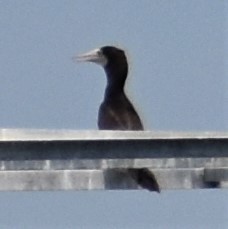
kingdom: Animalia
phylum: Chordata
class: Aves
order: Suliformes
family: Sulidae
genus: Sula
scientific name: Sula leucogaster
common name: Brown booby
